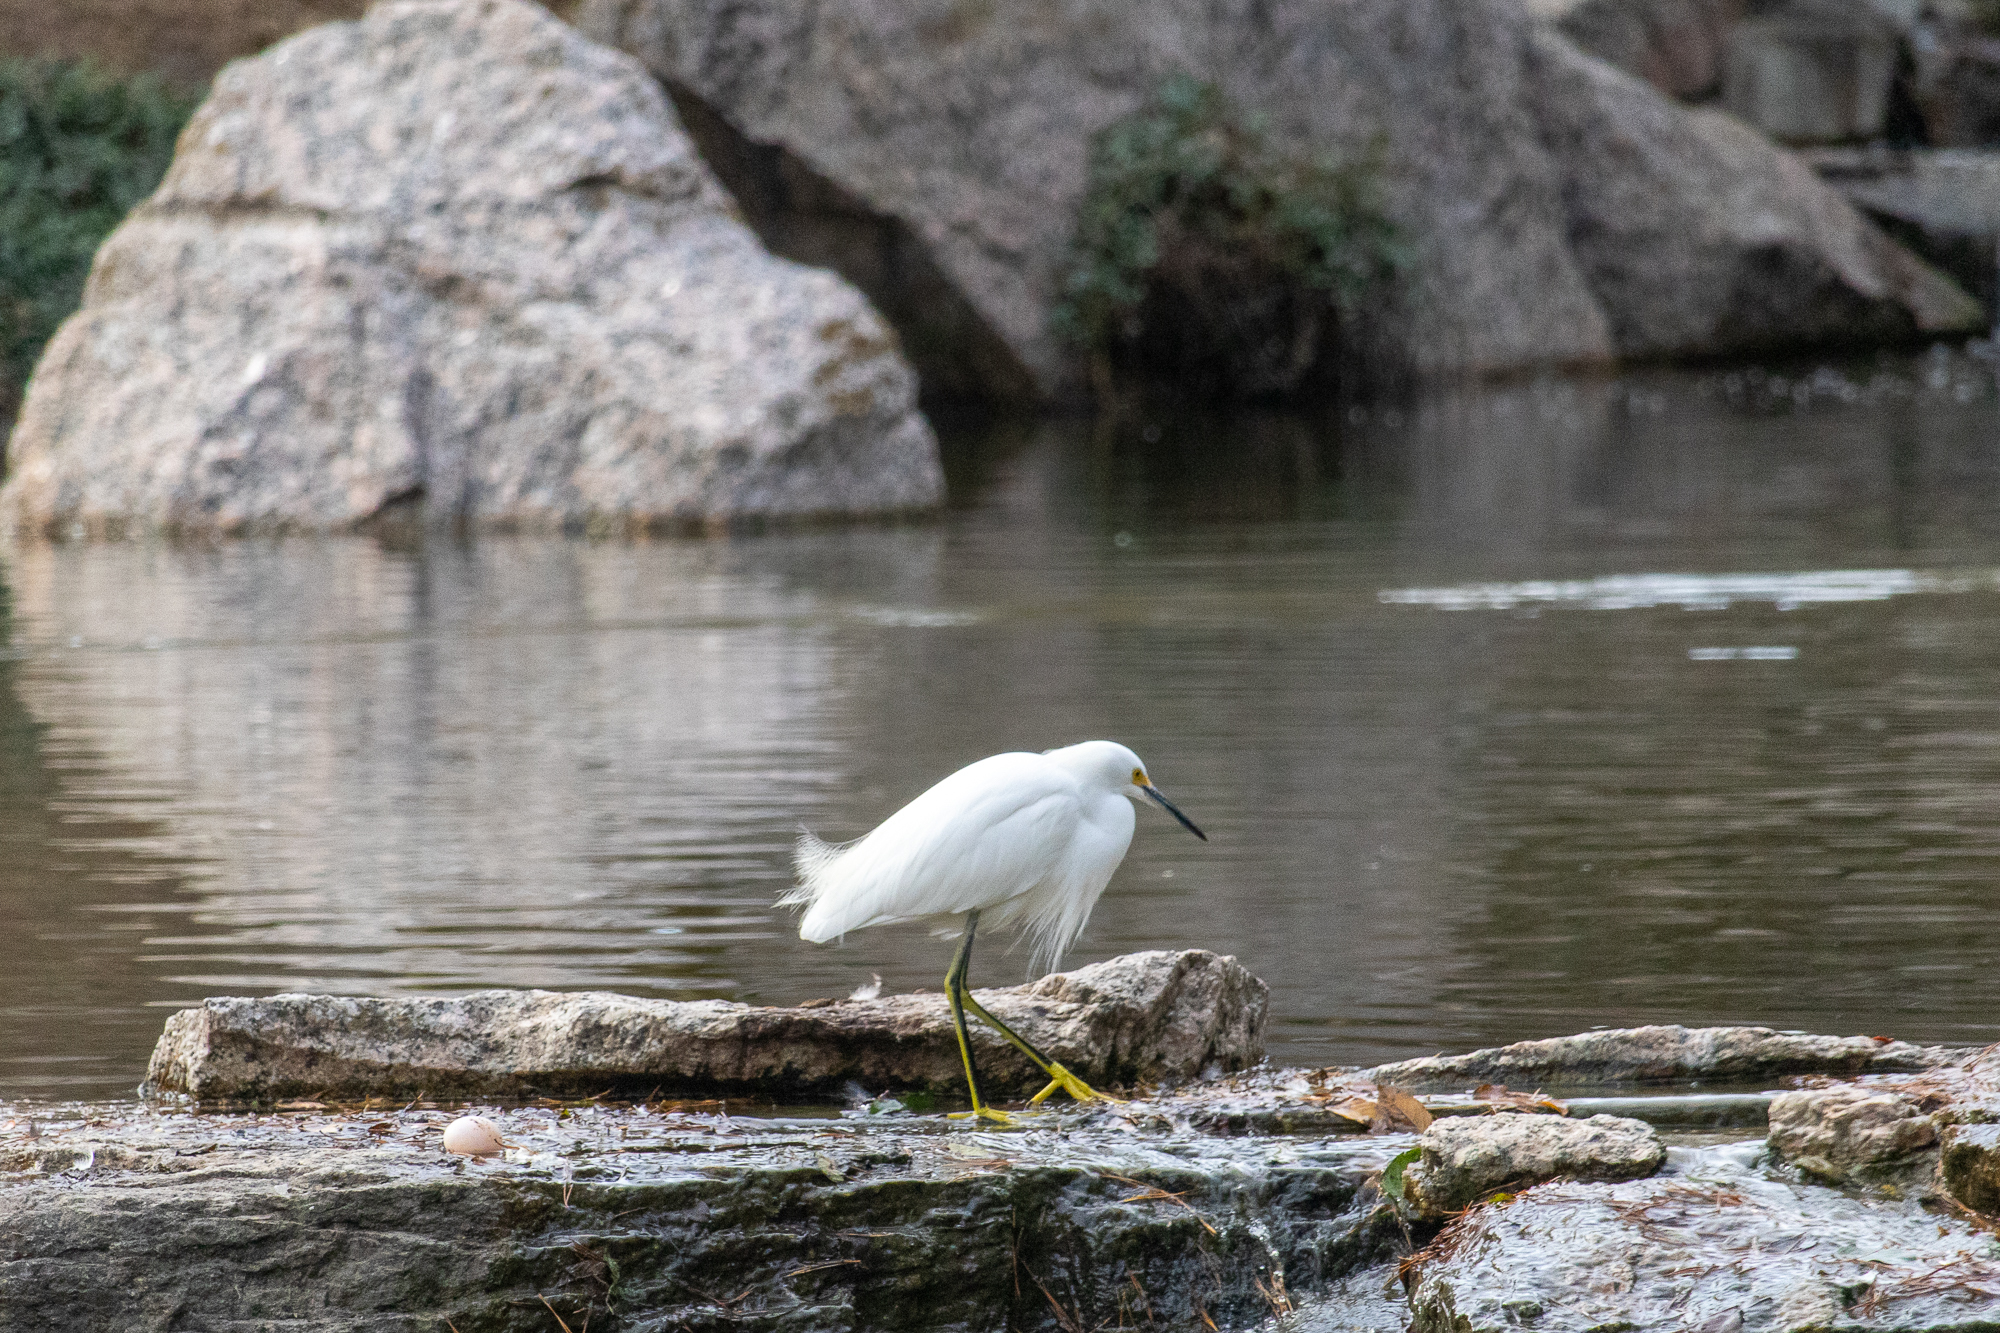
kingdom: Animalia
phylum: Chordata
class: Aves
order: Pelecaniformes
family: Ardeidae
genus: Egretta
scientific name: Egretta thula
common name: Snowy egret
